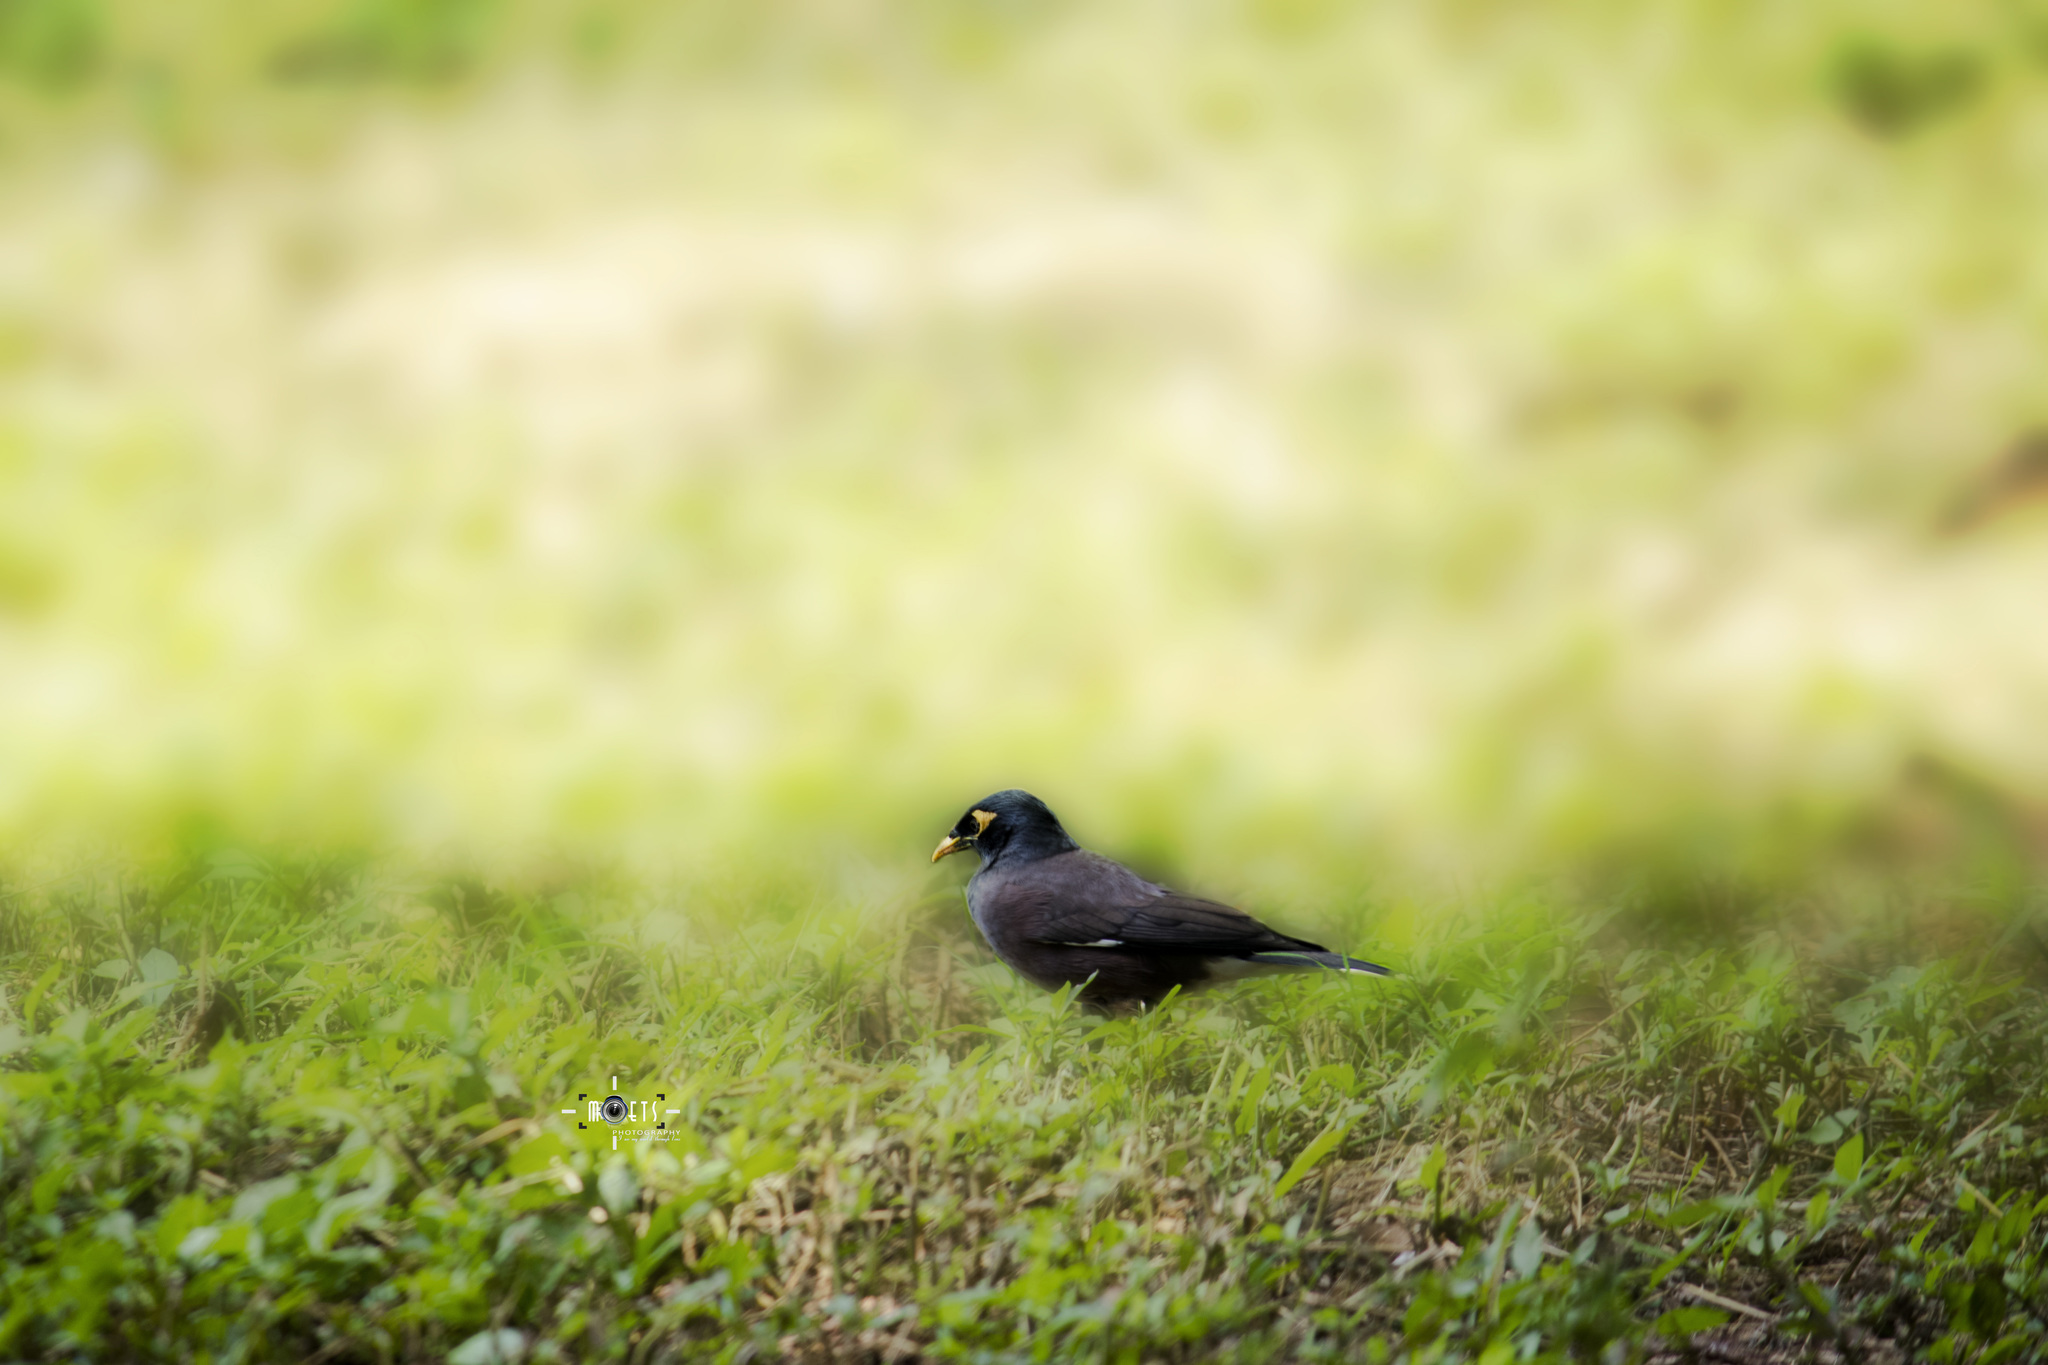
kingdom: Animalia
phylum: Chordata
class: Aves
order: Passeriformes
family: Sturnidae
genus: Acridotheres
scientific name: Acridotheres tristis
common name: Common myna
